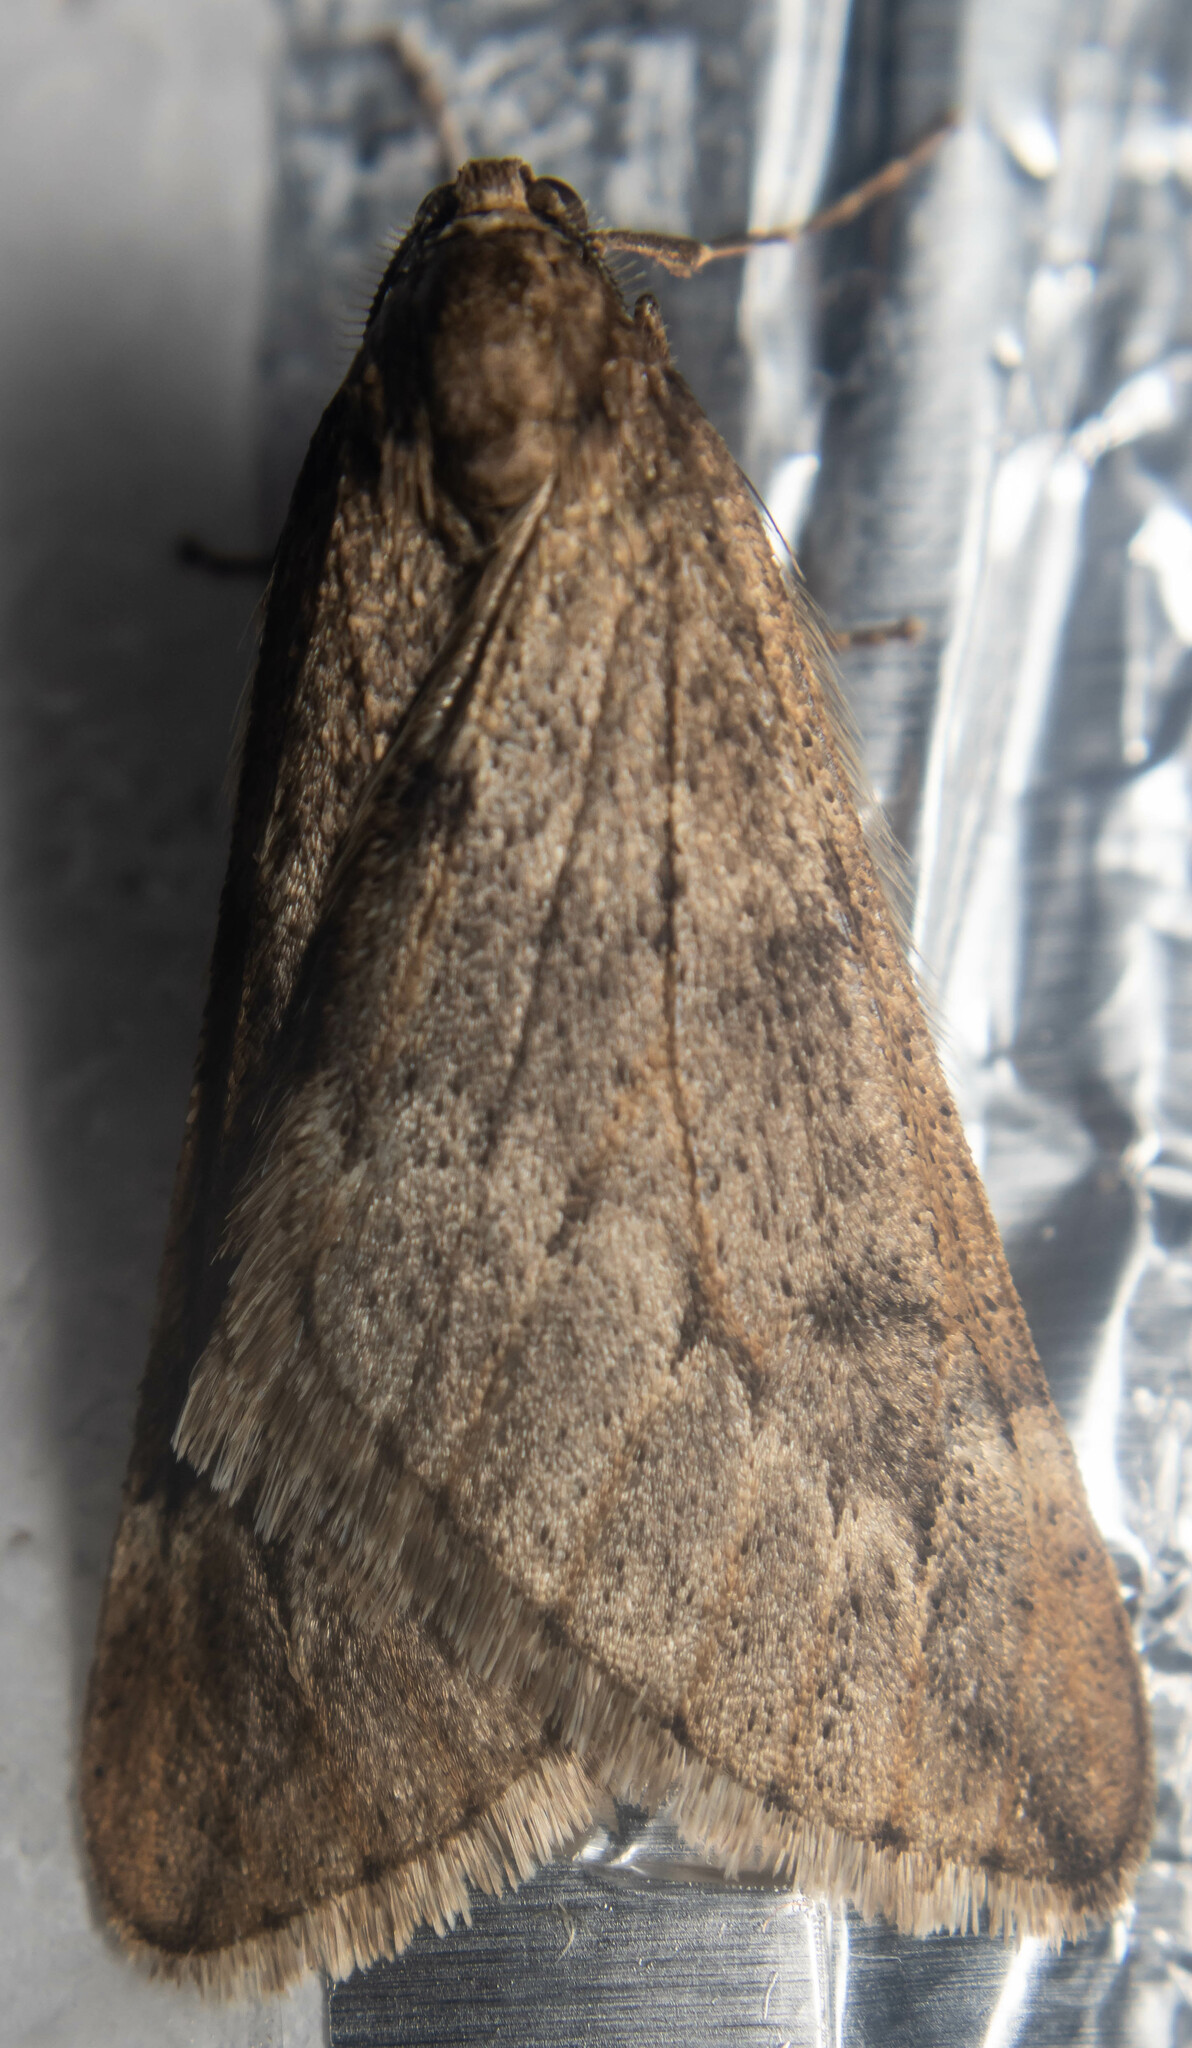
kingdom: Animalia
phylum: Arthropoda
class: Insecta
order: Lepidoptera
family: Geometridae
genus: Alsophila
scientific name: Alsophila aescularia
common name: March moth
